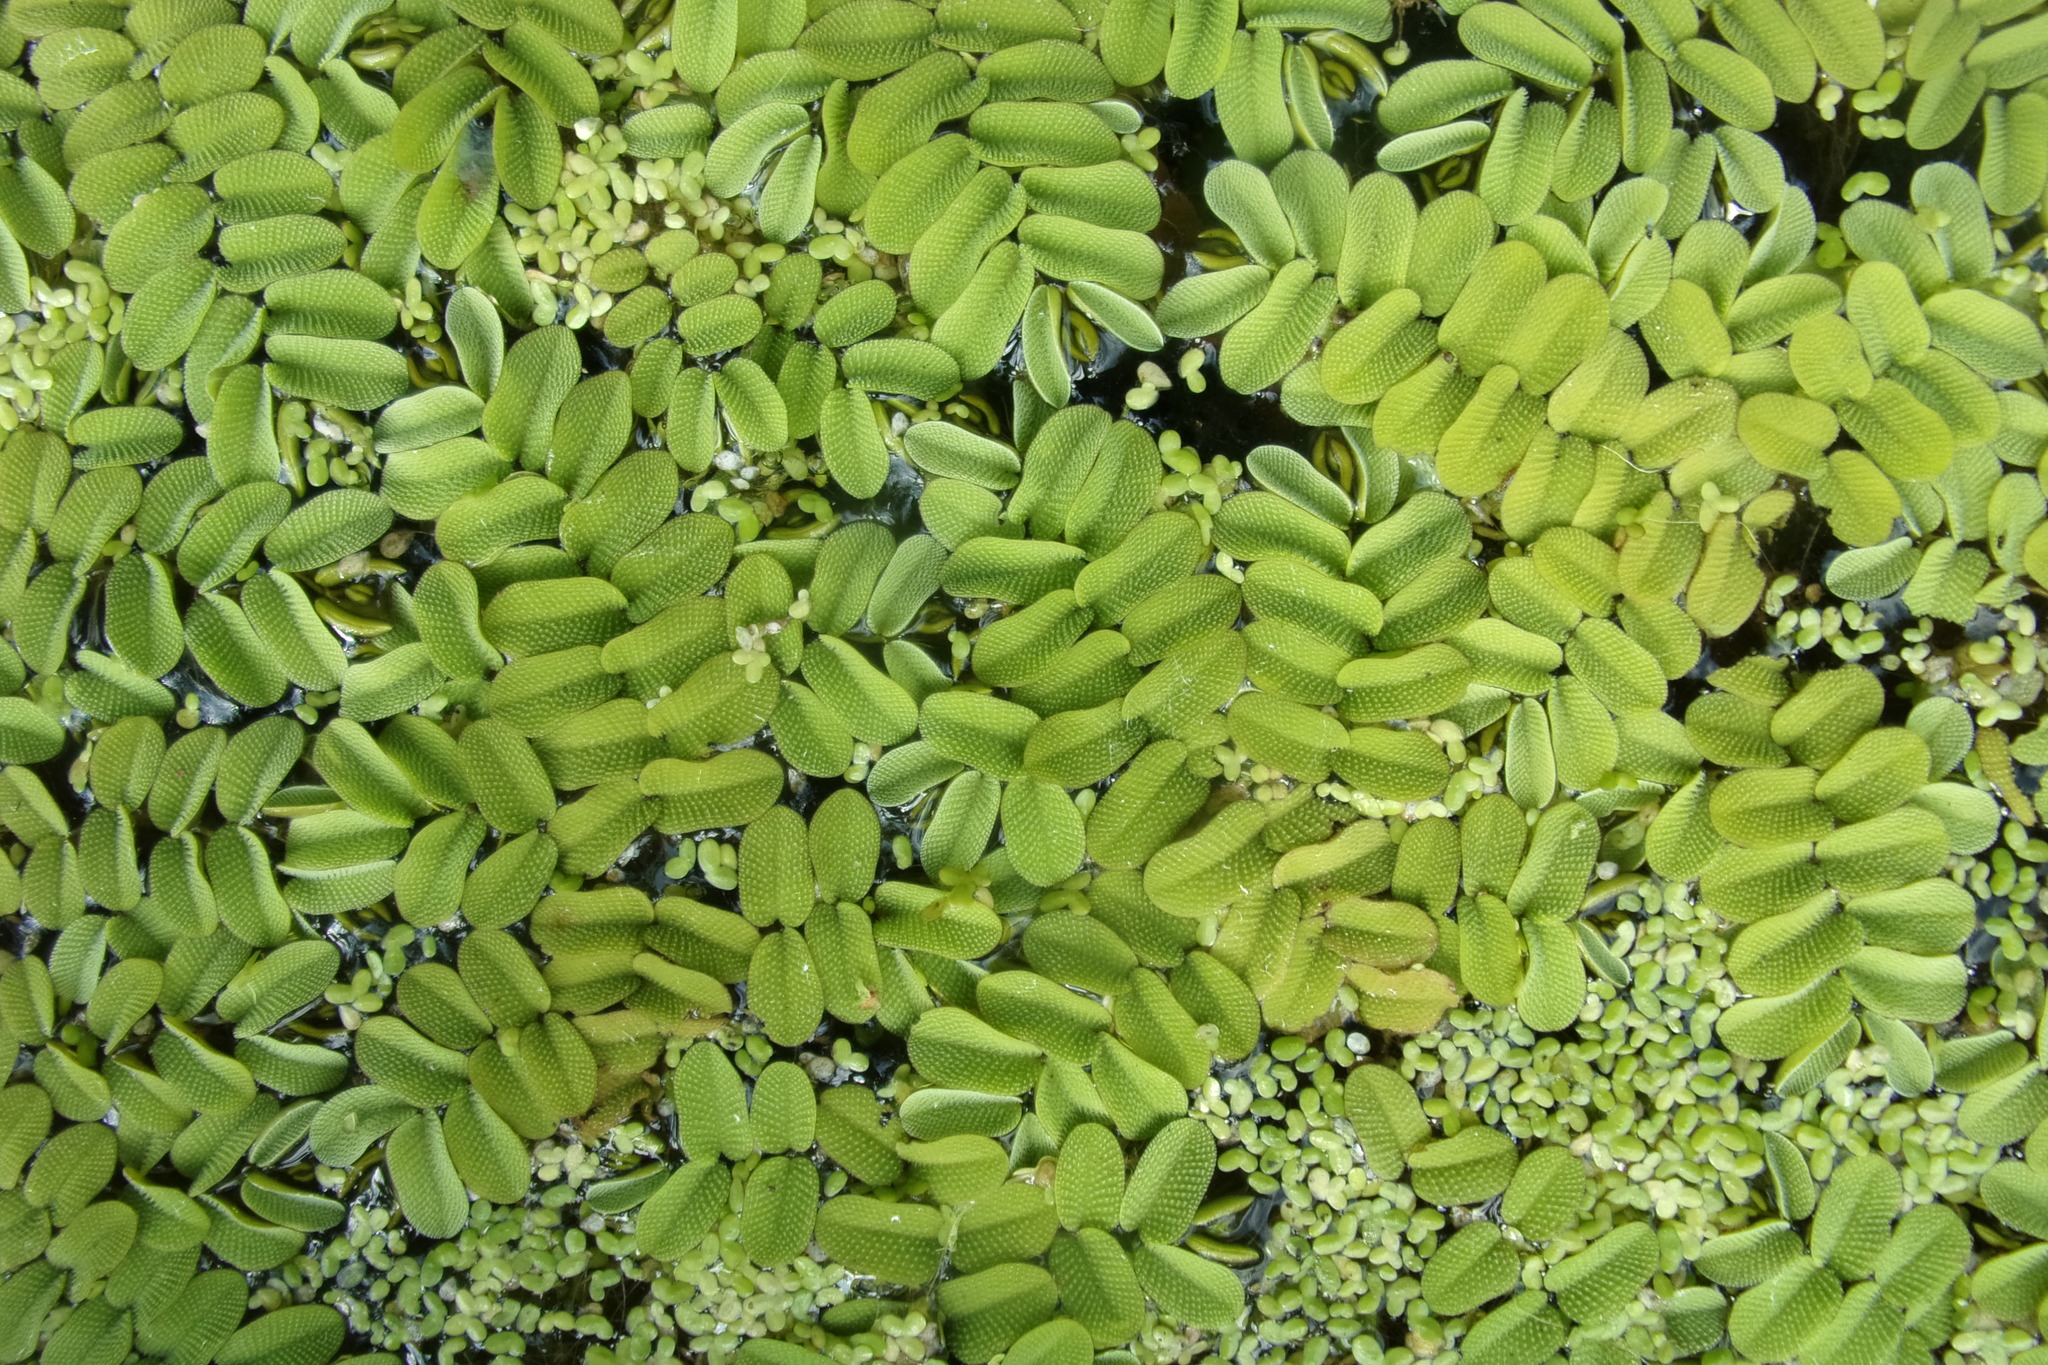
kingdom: Plantae
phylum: Tracheophyta
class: Polypodiopsida
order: Salviniales
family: Salviniaceae
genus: Salvinia
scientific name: Salvinia natans
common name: Floating fern
